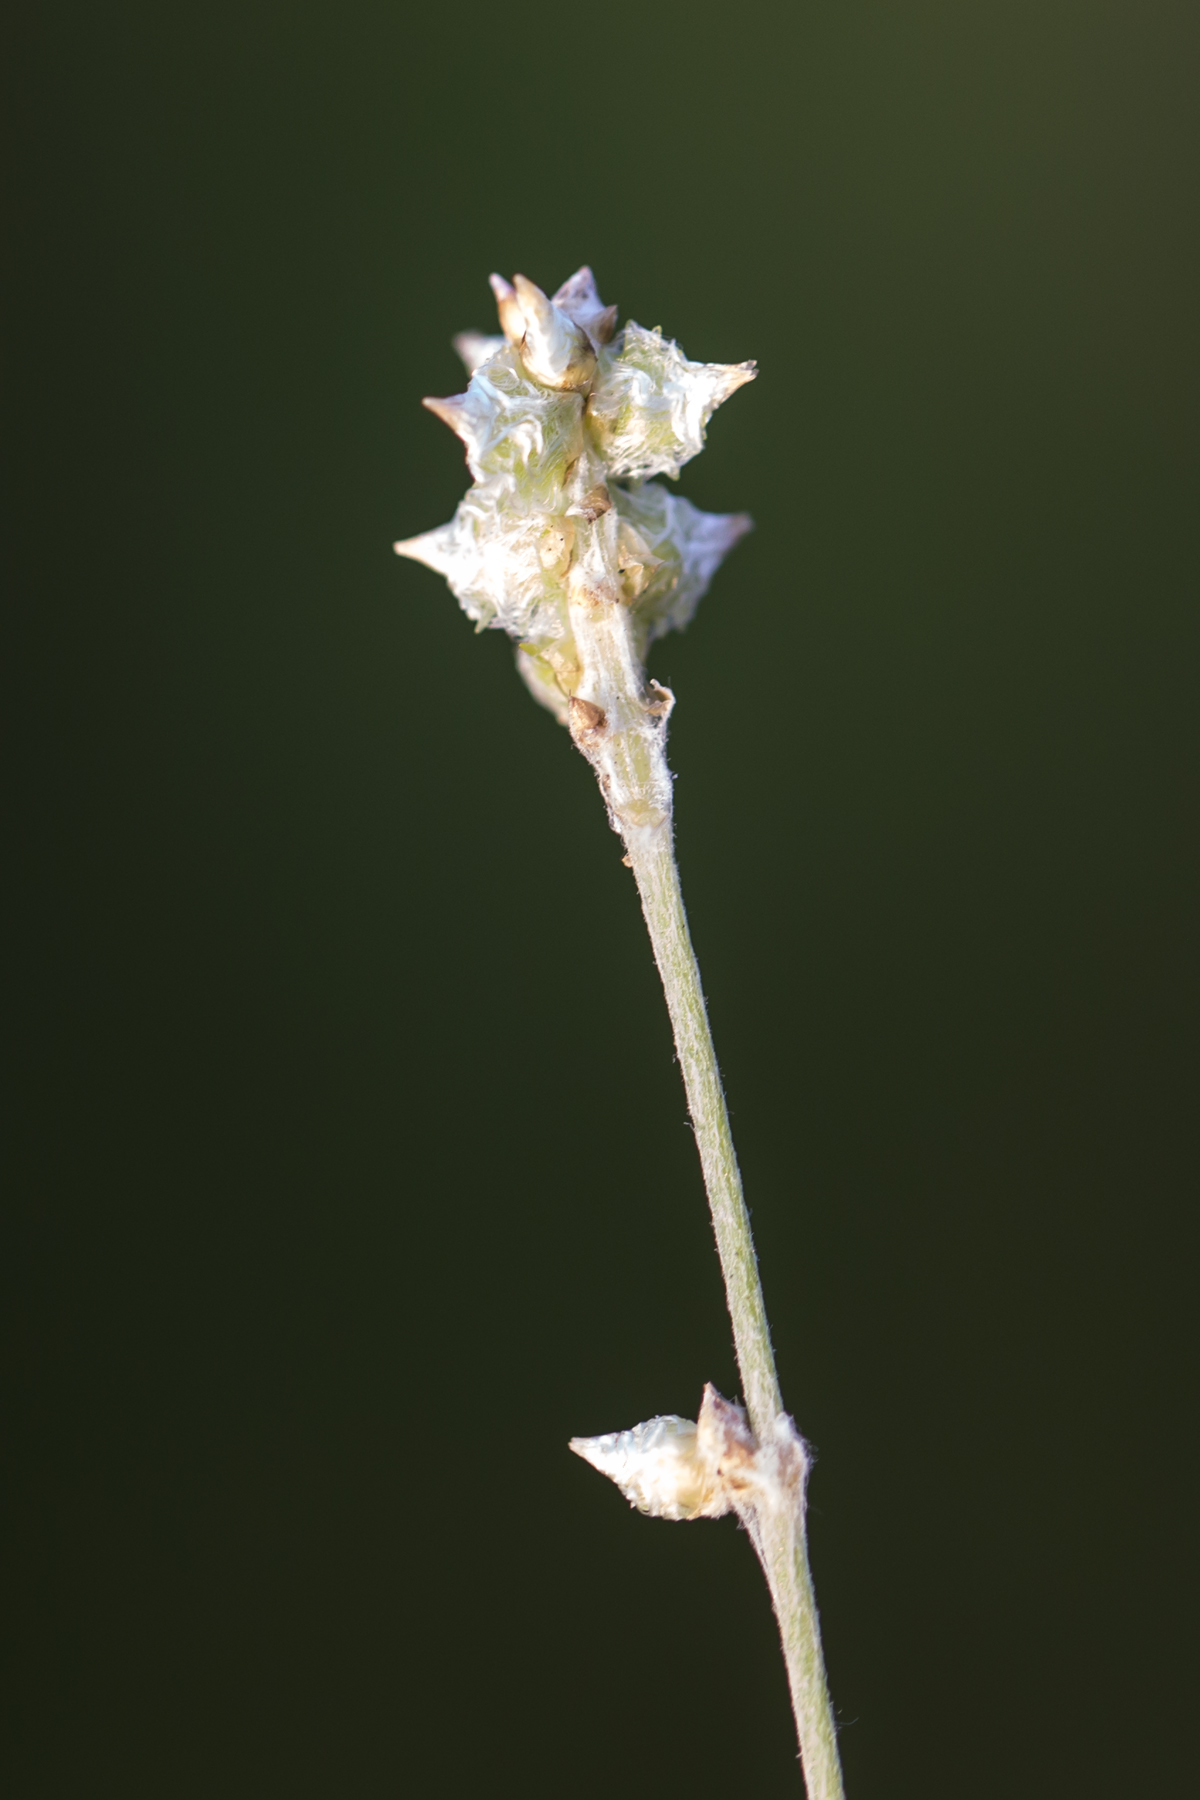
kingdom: Plantae
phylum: Tracheophyta
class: Magnoliopsida
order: Caryophyllales
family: Amaranthaceae
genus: Froelichia
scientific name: Froelichia gracilis
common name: Slender cottonweed
